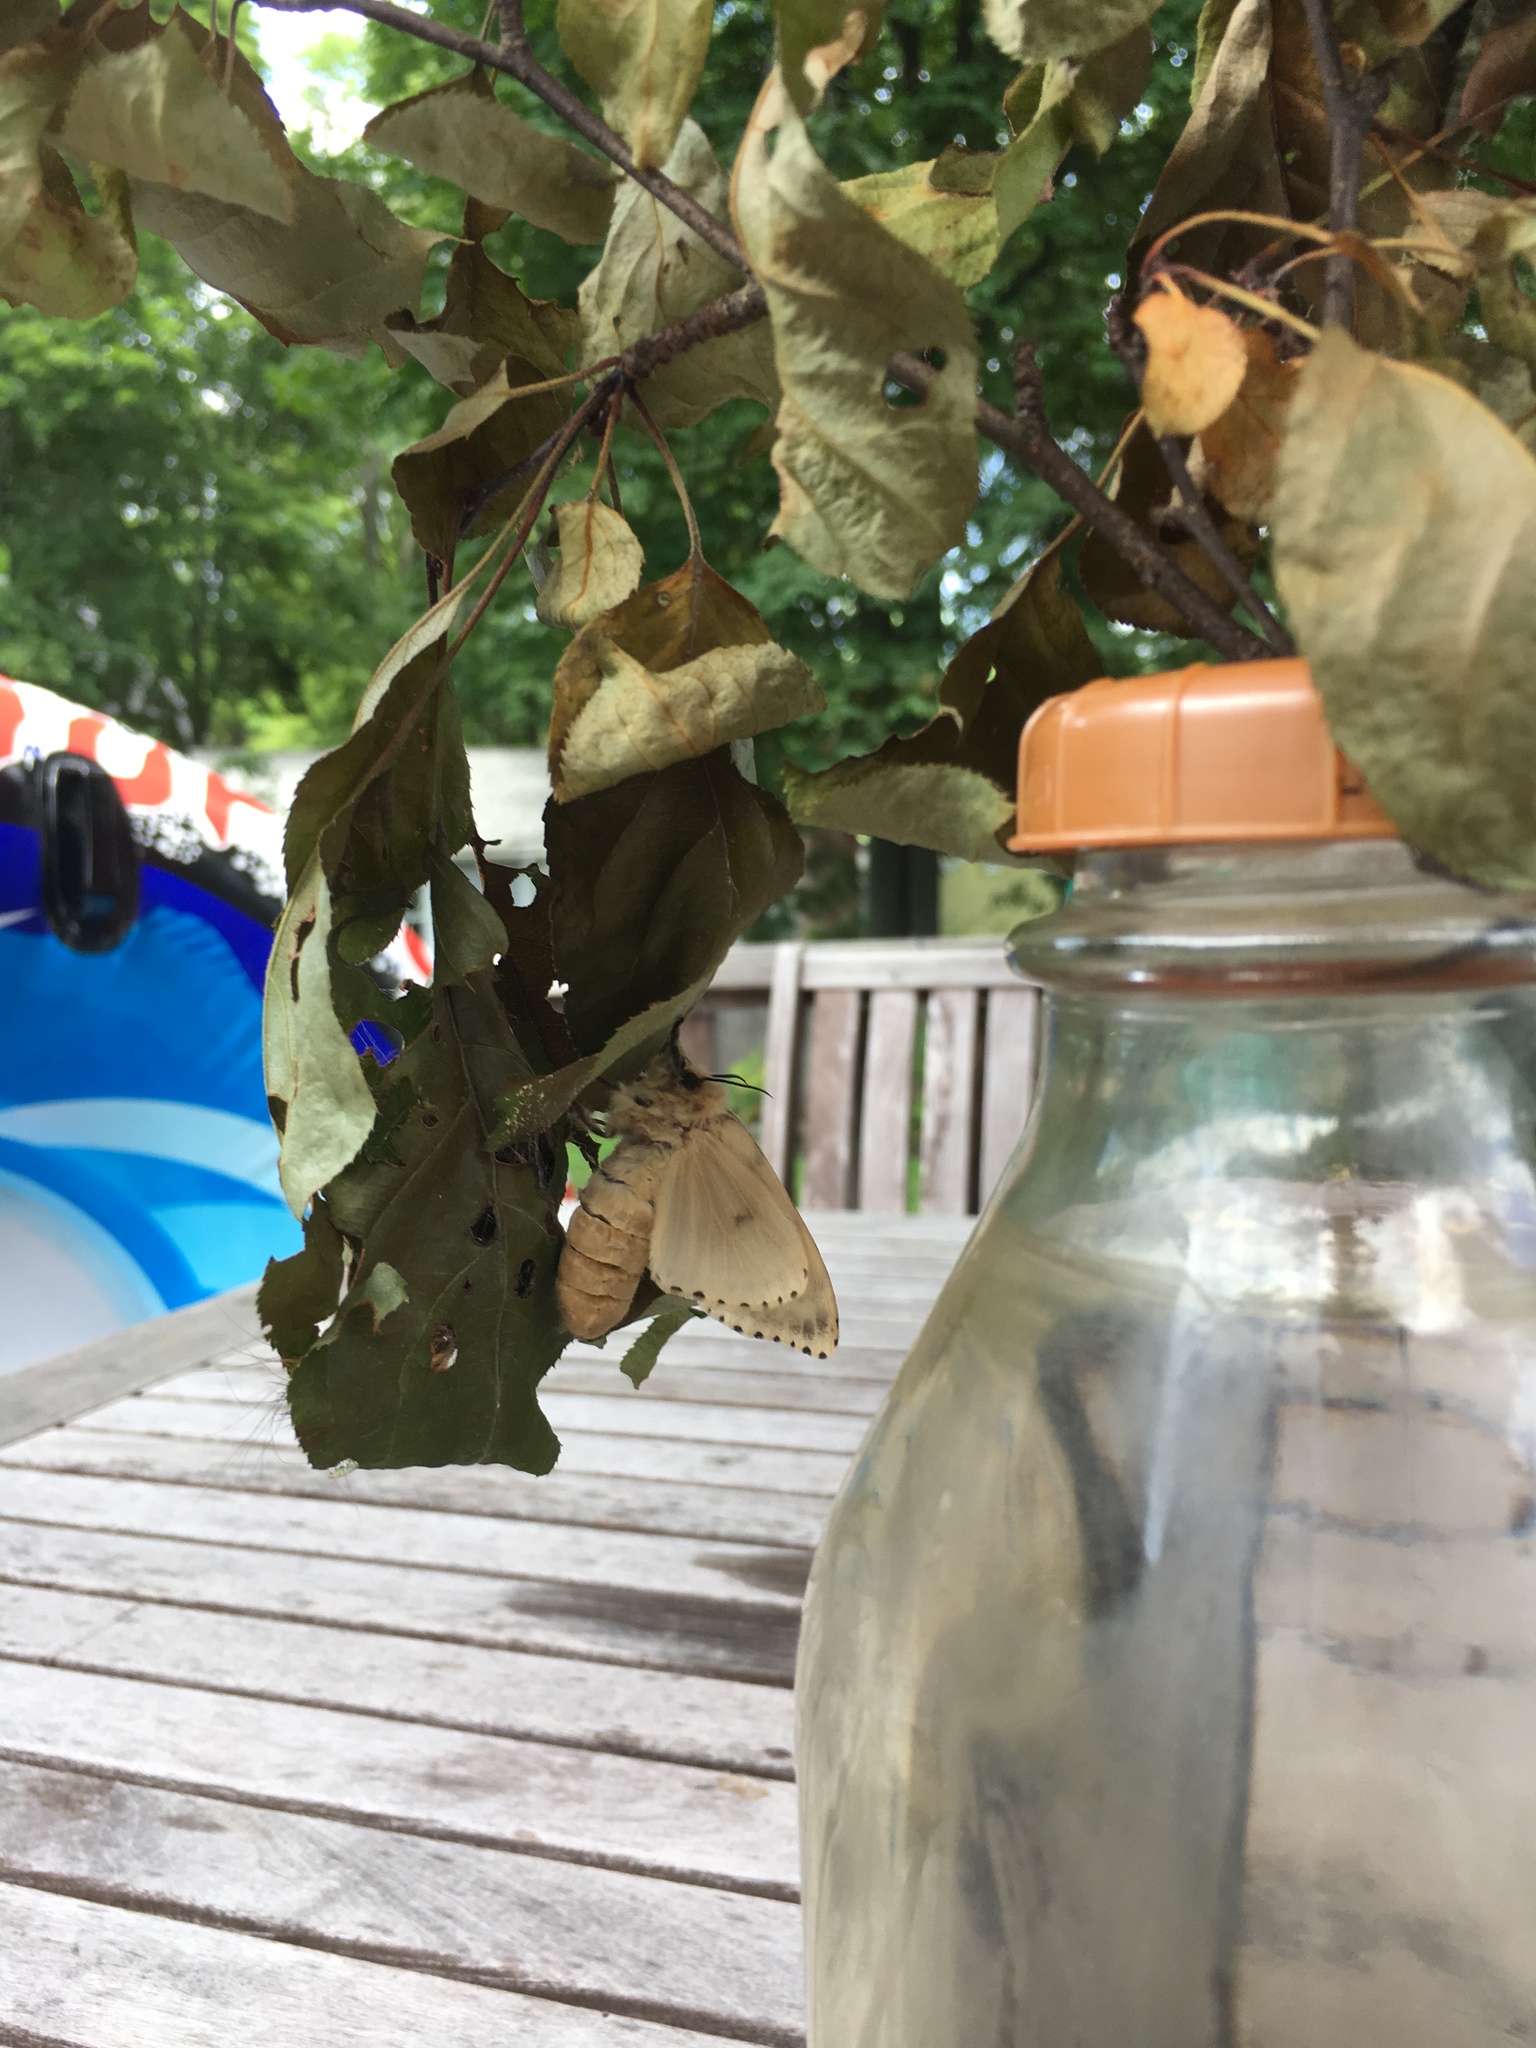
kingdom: Animalia
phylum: Arthropoda
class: Insecta
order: Lepidoptera
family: Erebidae
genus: Lymantria
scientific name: Lymantria dispar
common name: Gypsy moth
